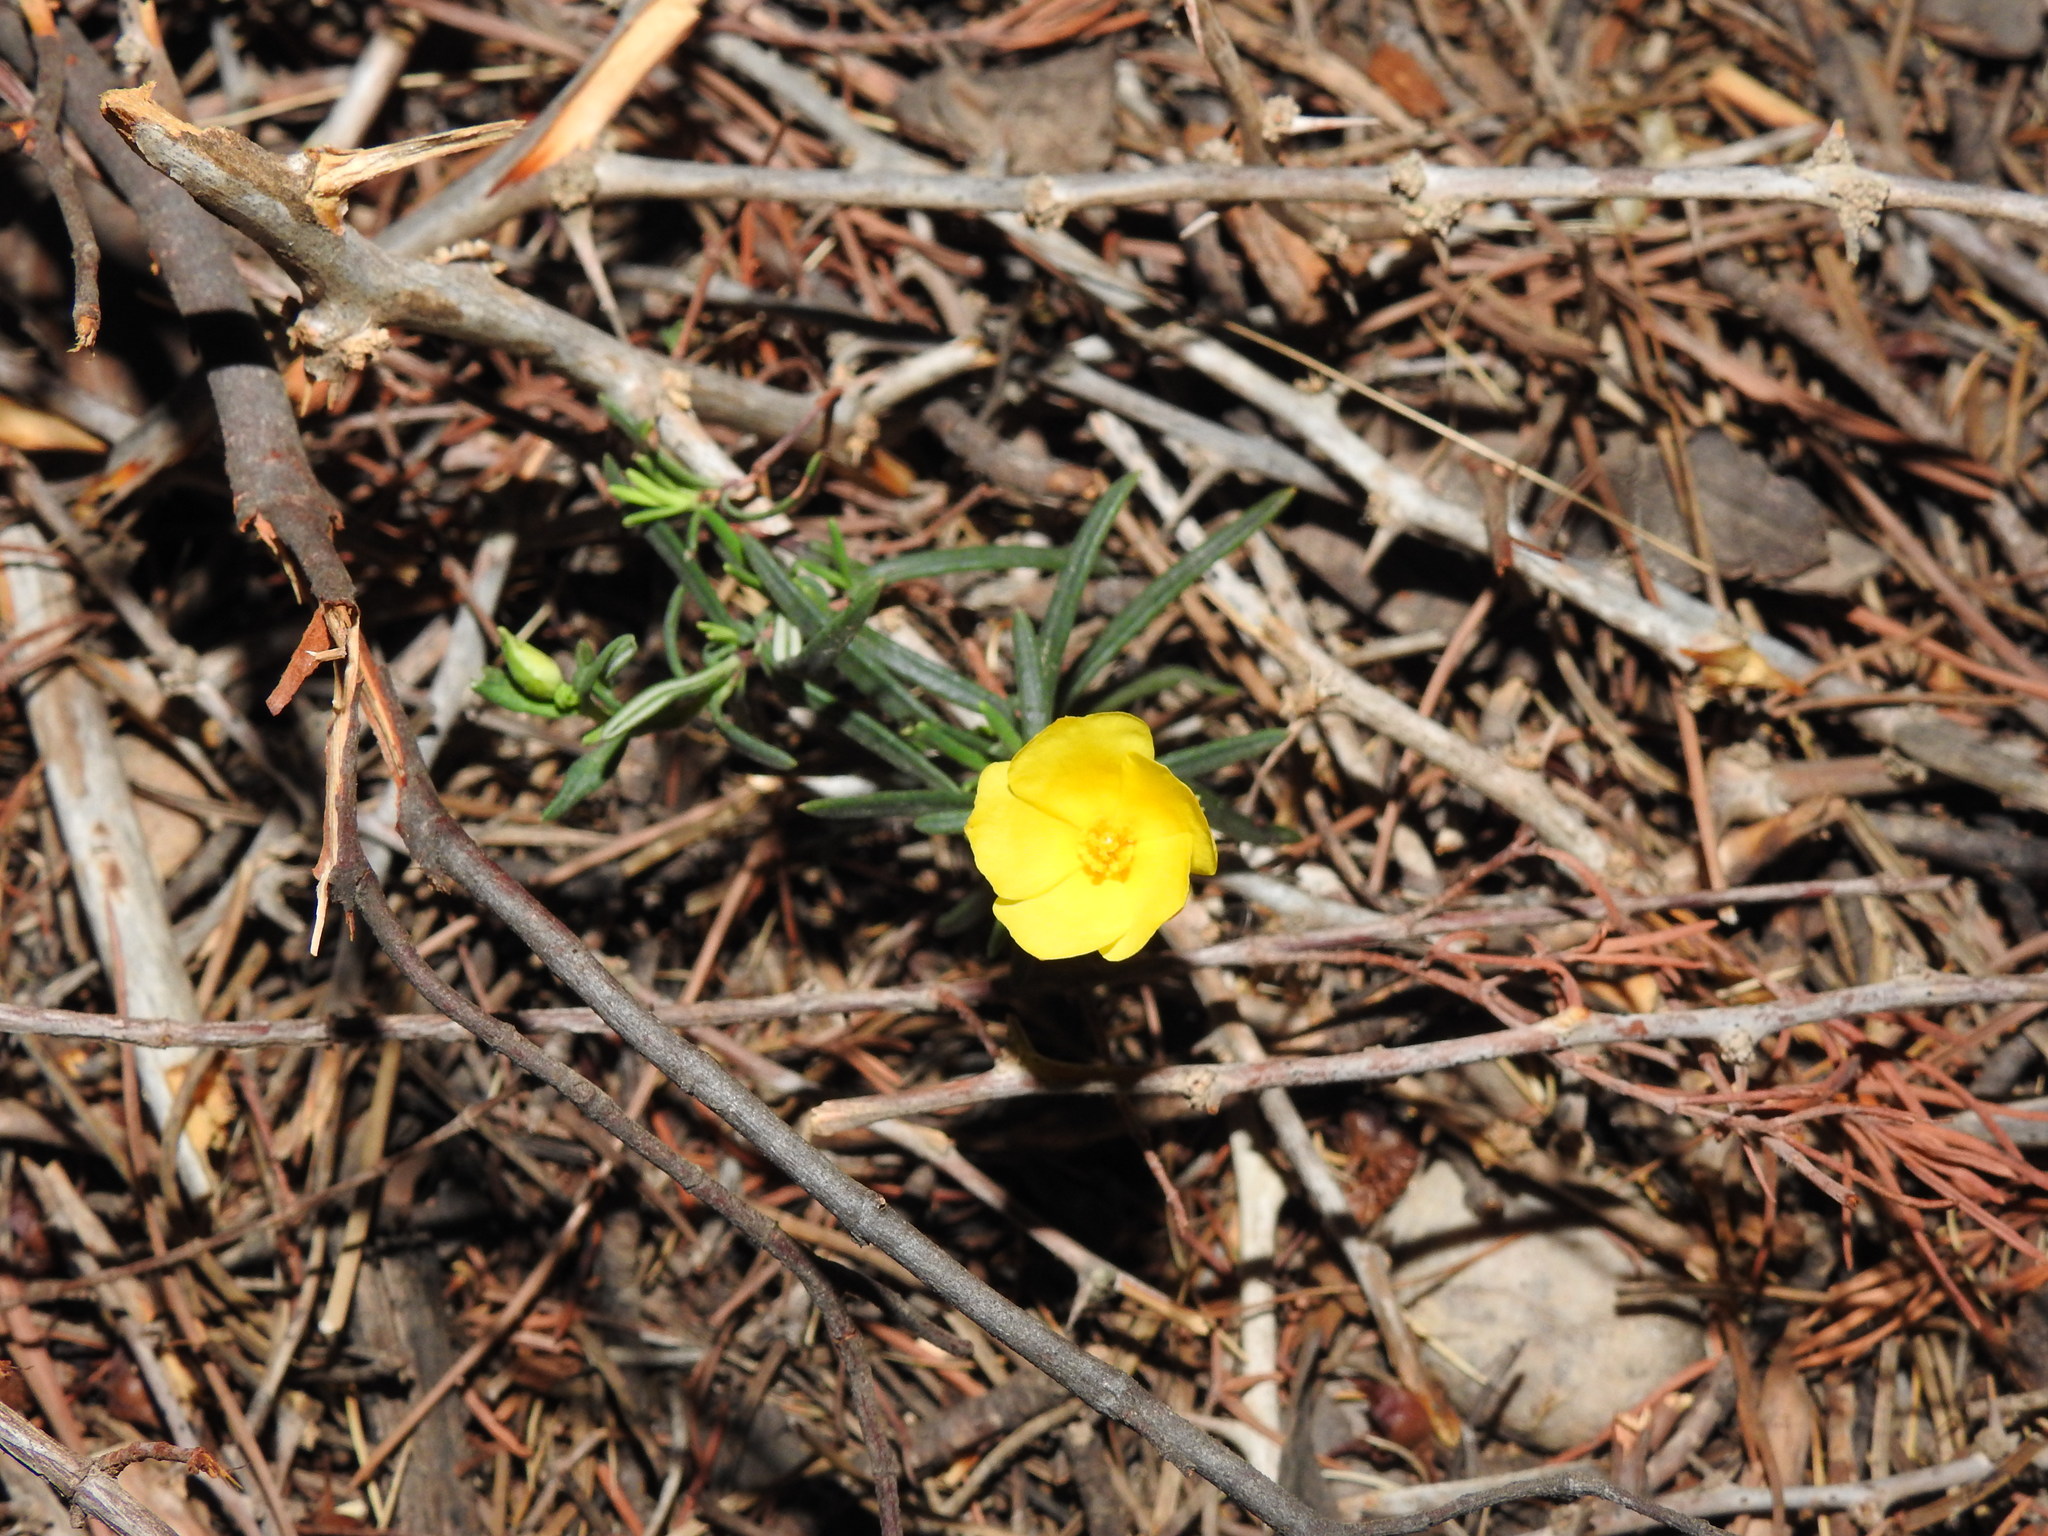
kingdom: Plantae
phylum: Tracheophyta
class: Magnoliopsida
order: Malvales
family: Cistaceae
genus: Halimium
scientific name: Halimium calycinum
